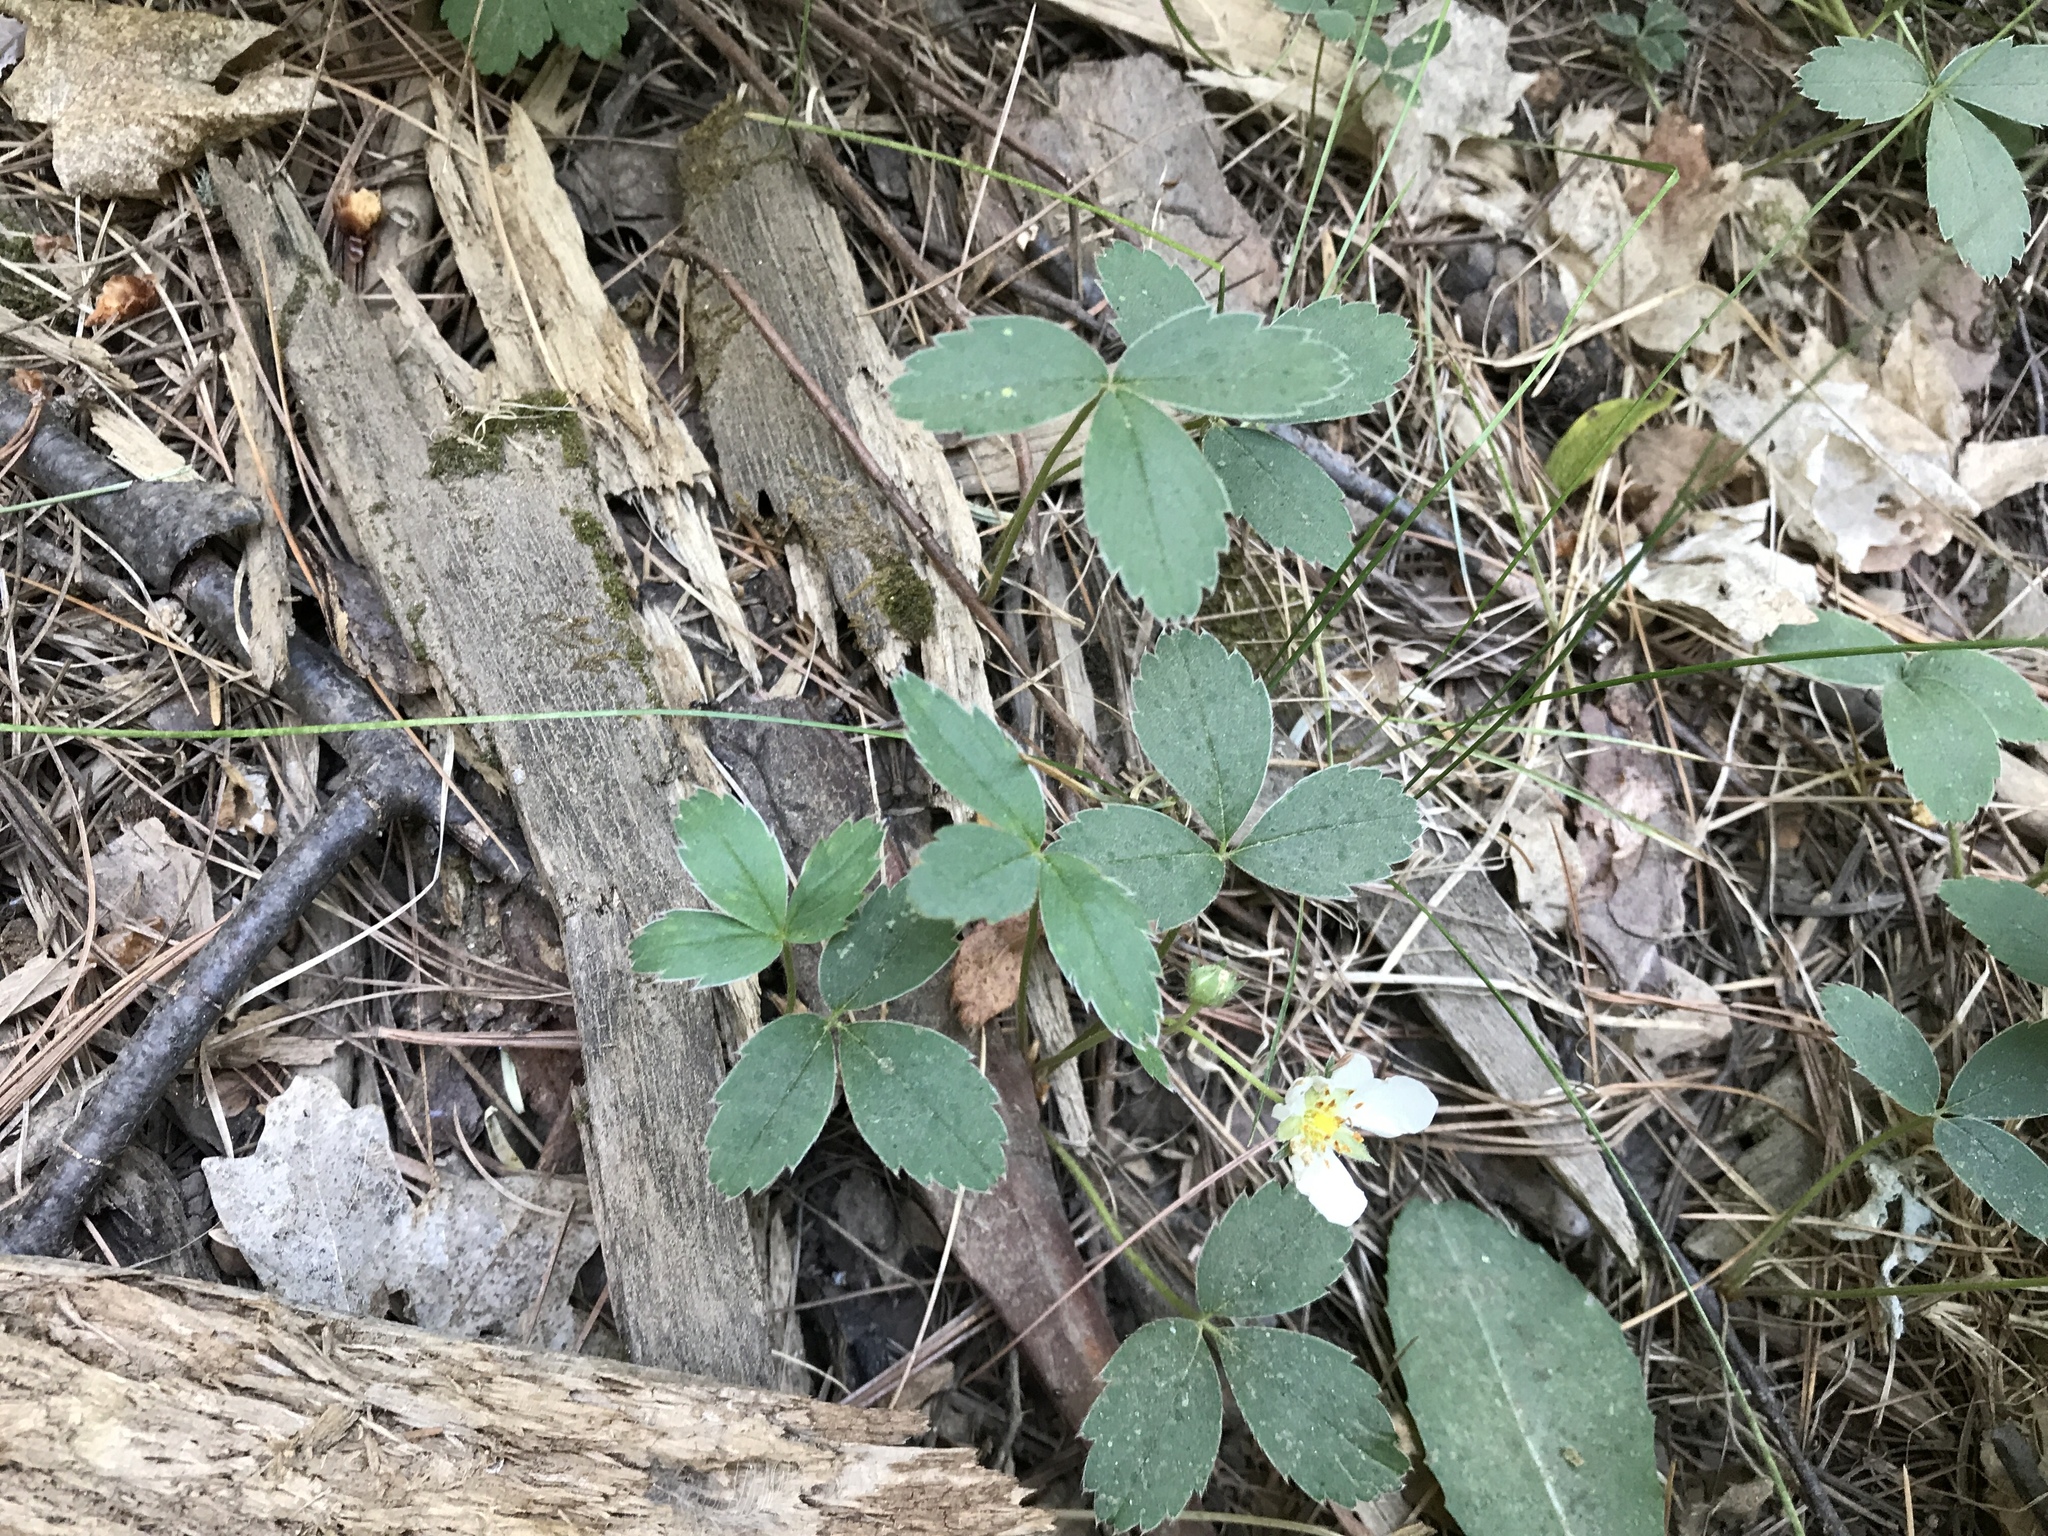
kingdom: Plantae
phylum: Tracheophyta
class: Magnoliopsida
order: Rosales
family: Rosaceae
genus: Fragaria
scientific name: Fragaria virginiana
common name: Thickleaved wild strawberry
